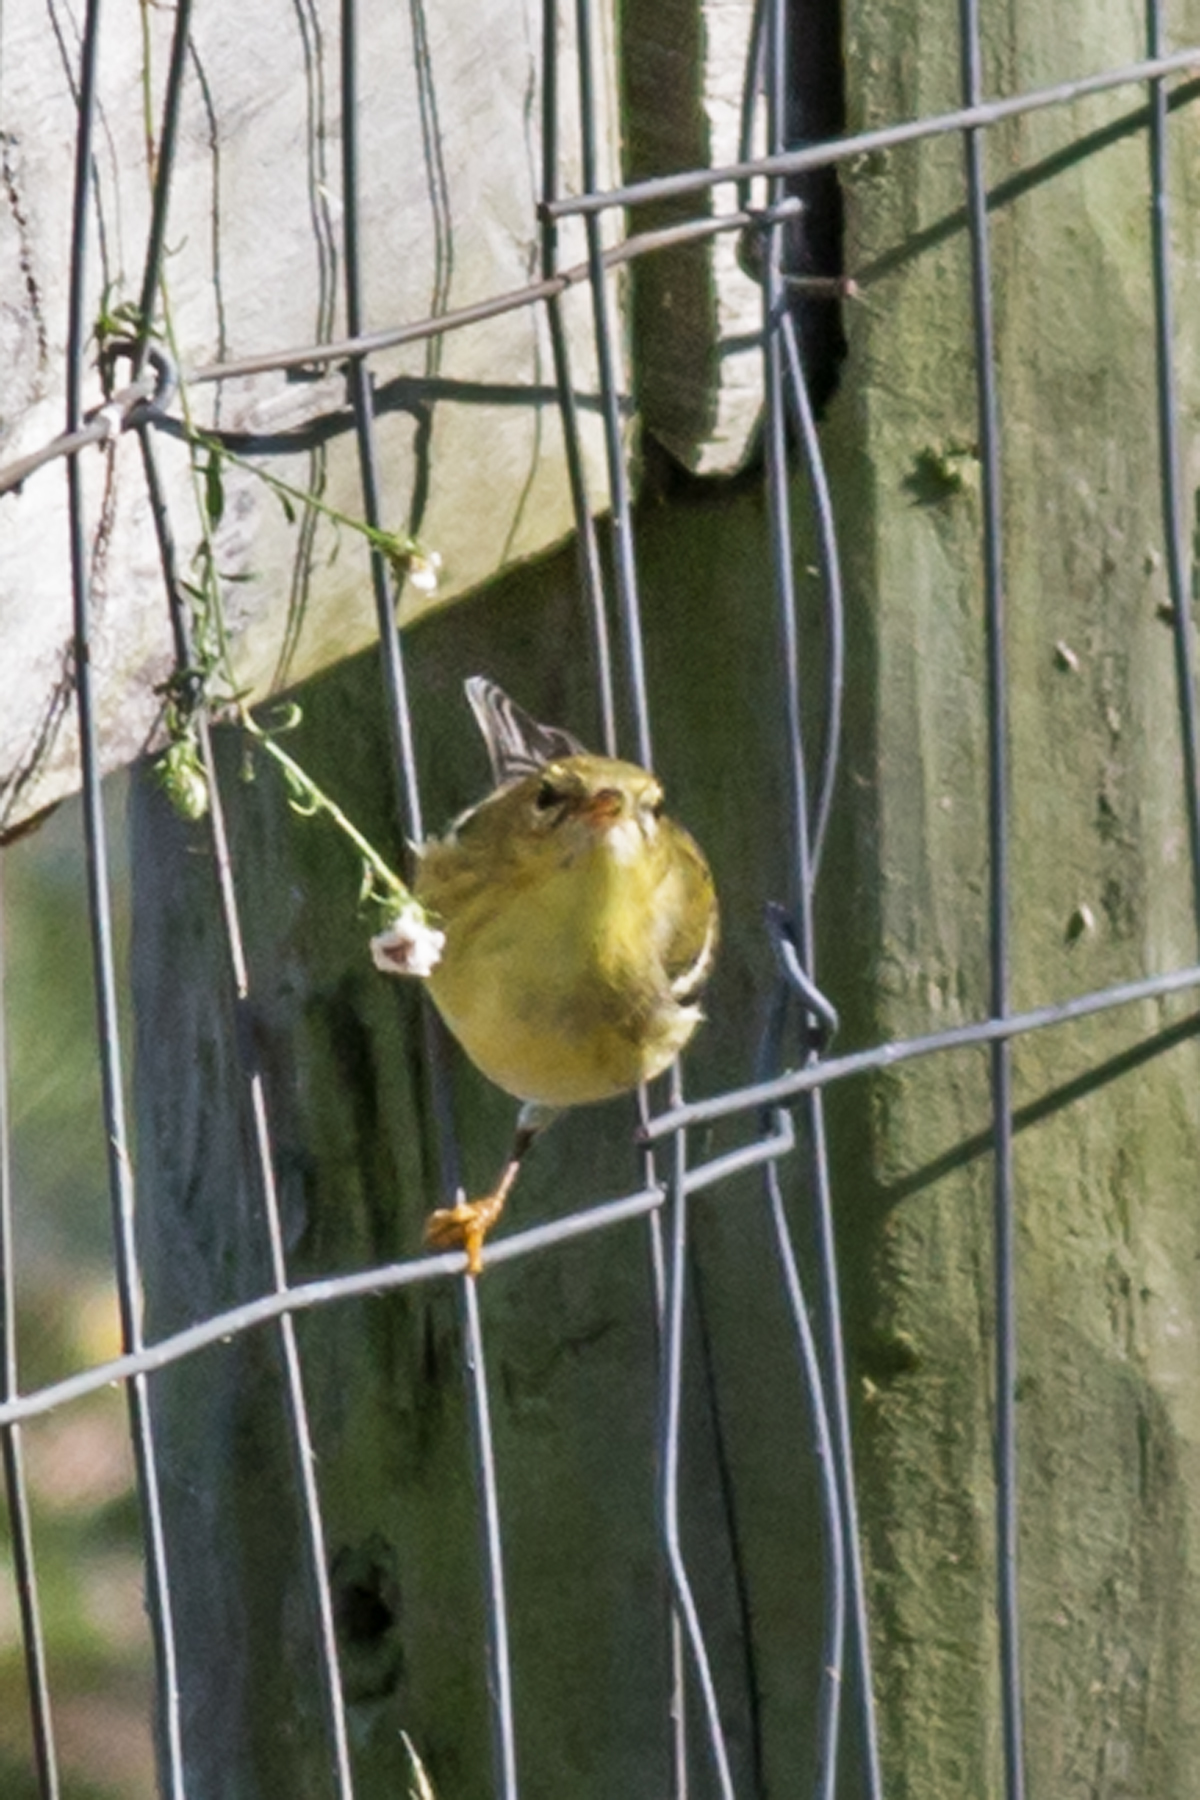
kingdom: Animalia
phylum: Chordata
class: Aves
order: Passeriformes
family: Parulidae
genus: Setophaga
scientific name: Setophaga striata
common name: Blackpoll warbler
